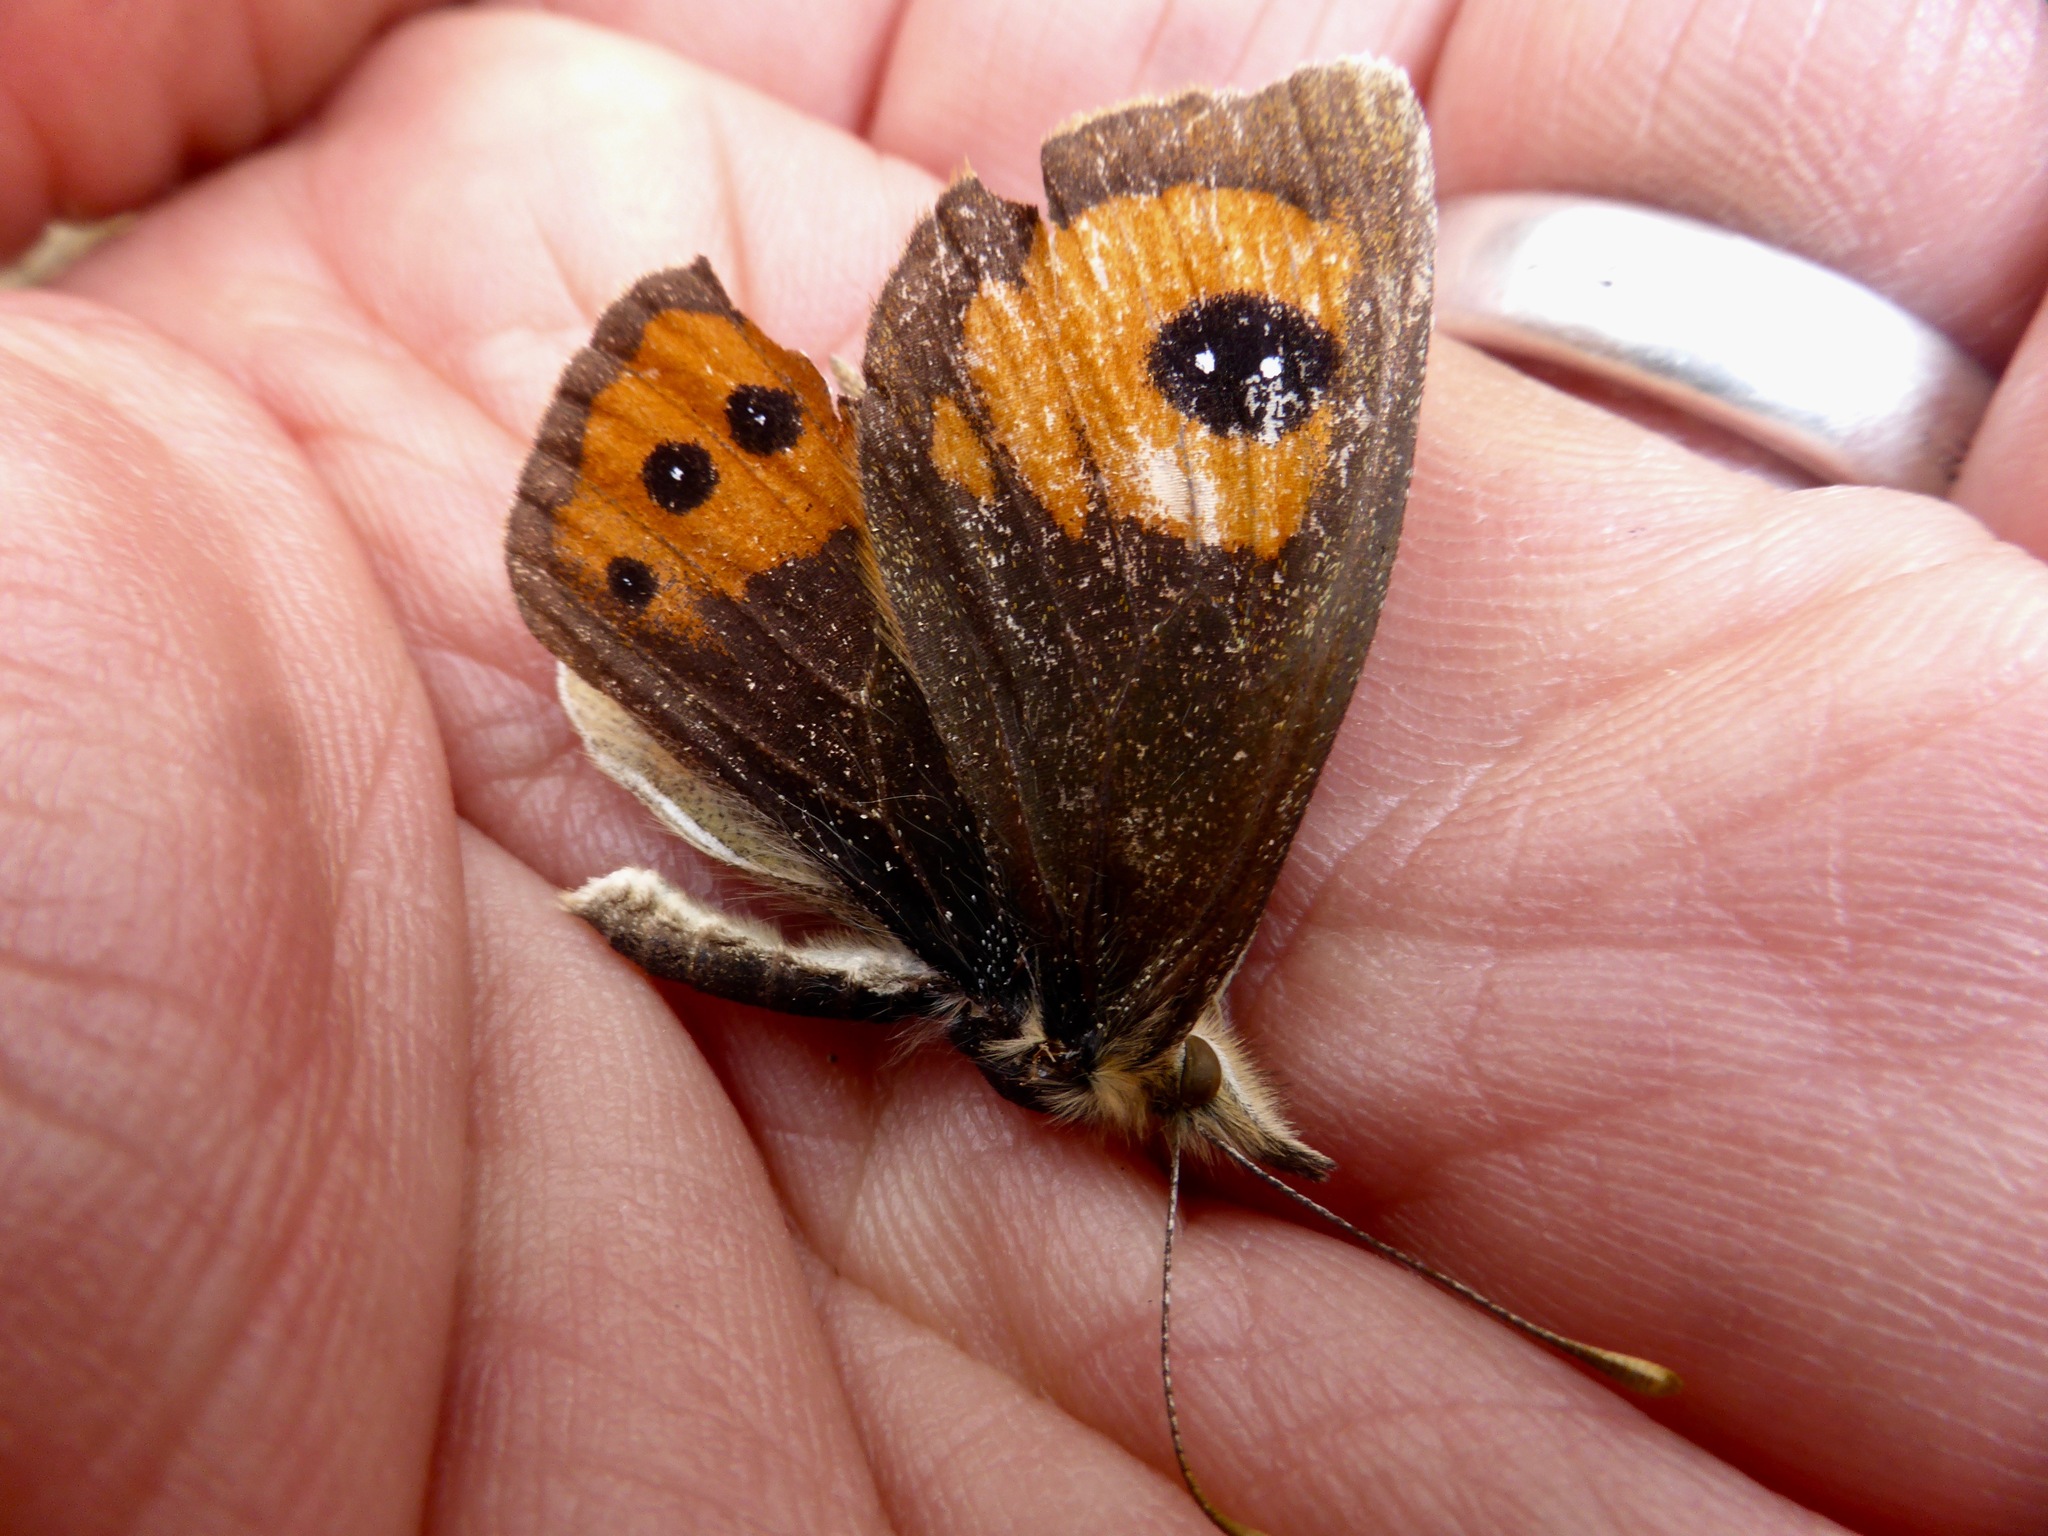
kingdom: Animalia
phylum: Arthropoda
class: Insecta
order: Lepidoptera
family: Nymphalidae
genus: Argyrophenga
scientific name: Argyrophenga antipodum
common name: Common tussock butterfly
